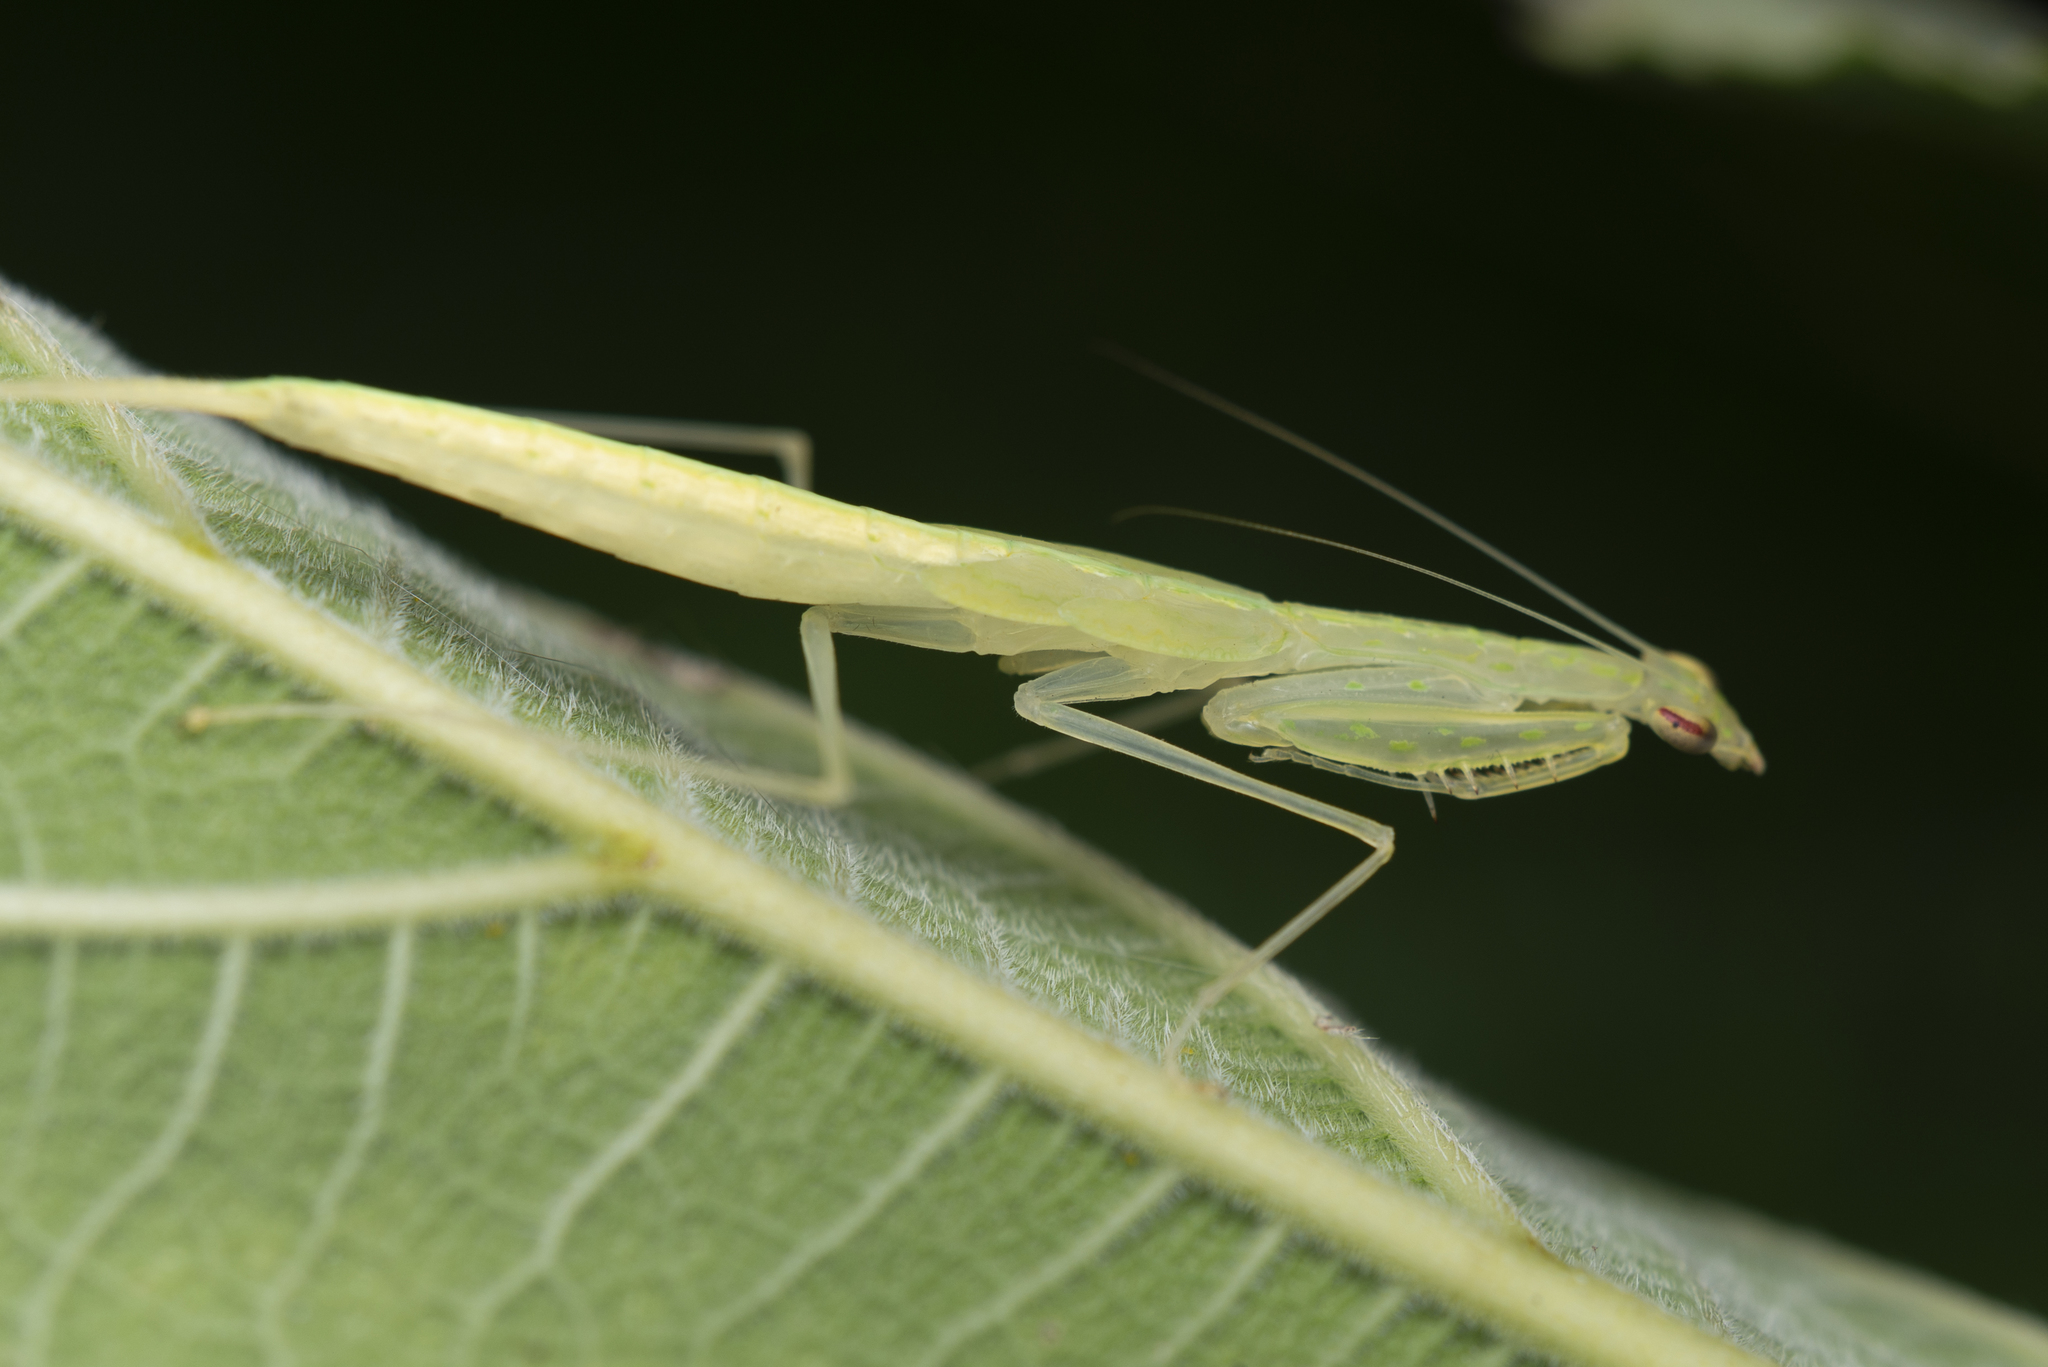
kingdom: Animalia
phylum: Arthropoda
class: Insecta
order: Mantodea
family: Nanomantidae
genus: Sinomantis
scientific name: Sinomantis denticulata
